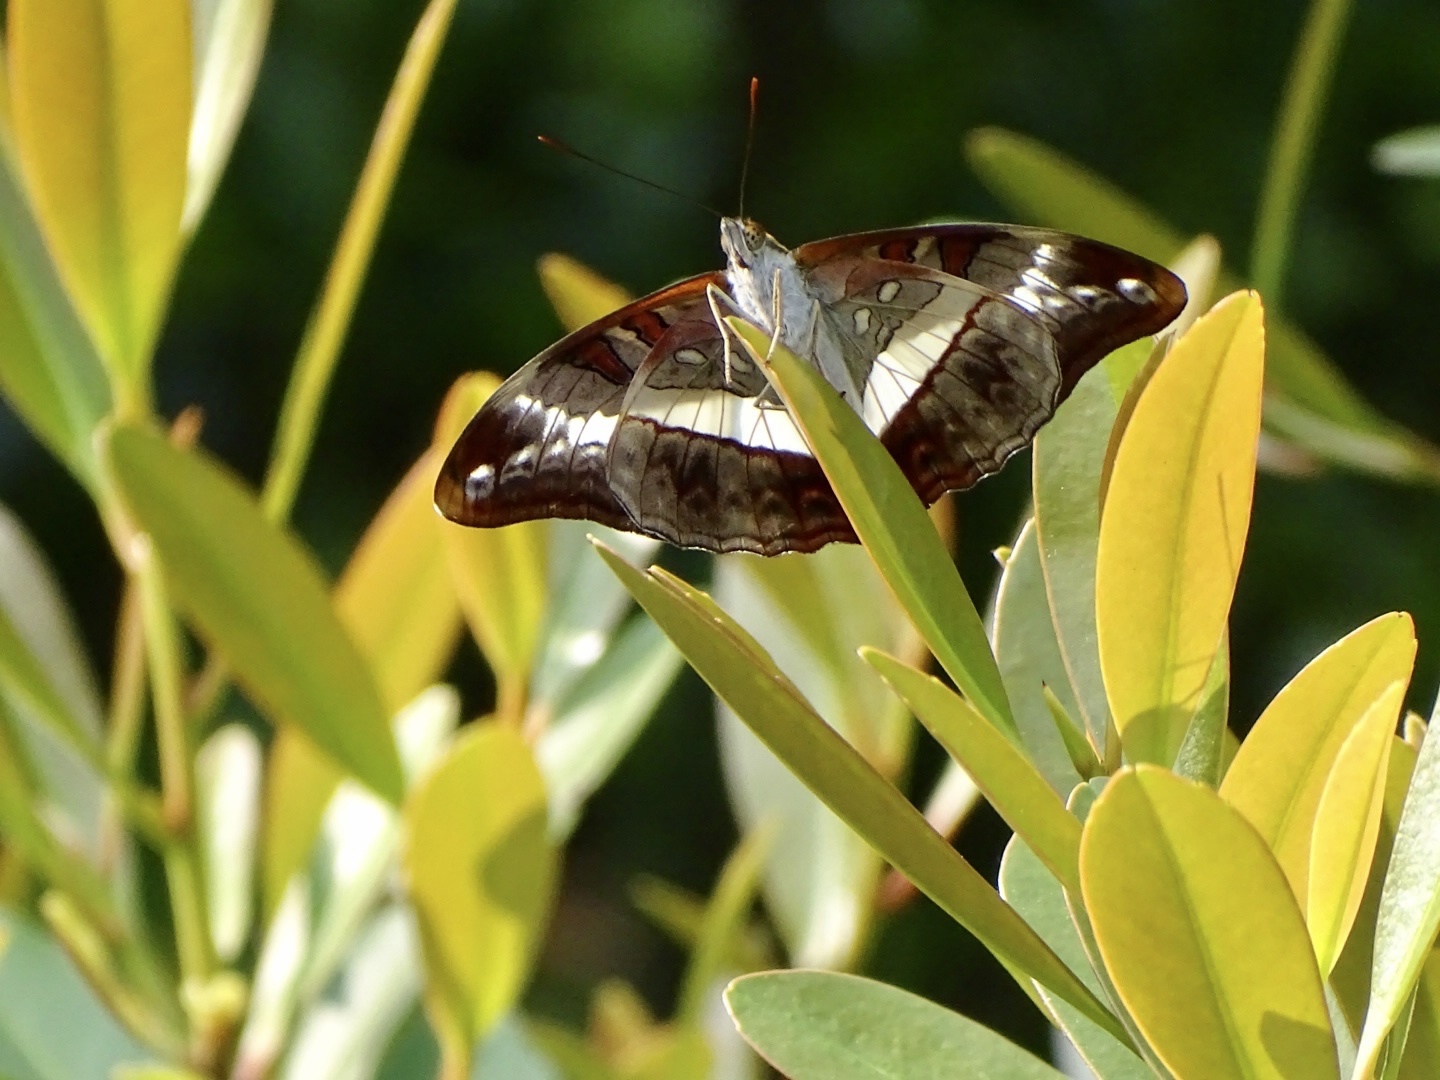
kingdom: Animalia
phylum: Arthropoda
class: Insecta
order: Lepidoptera
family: Nymphalidae
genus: Limenitis
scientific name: Limenitis Parasarpa dudu
